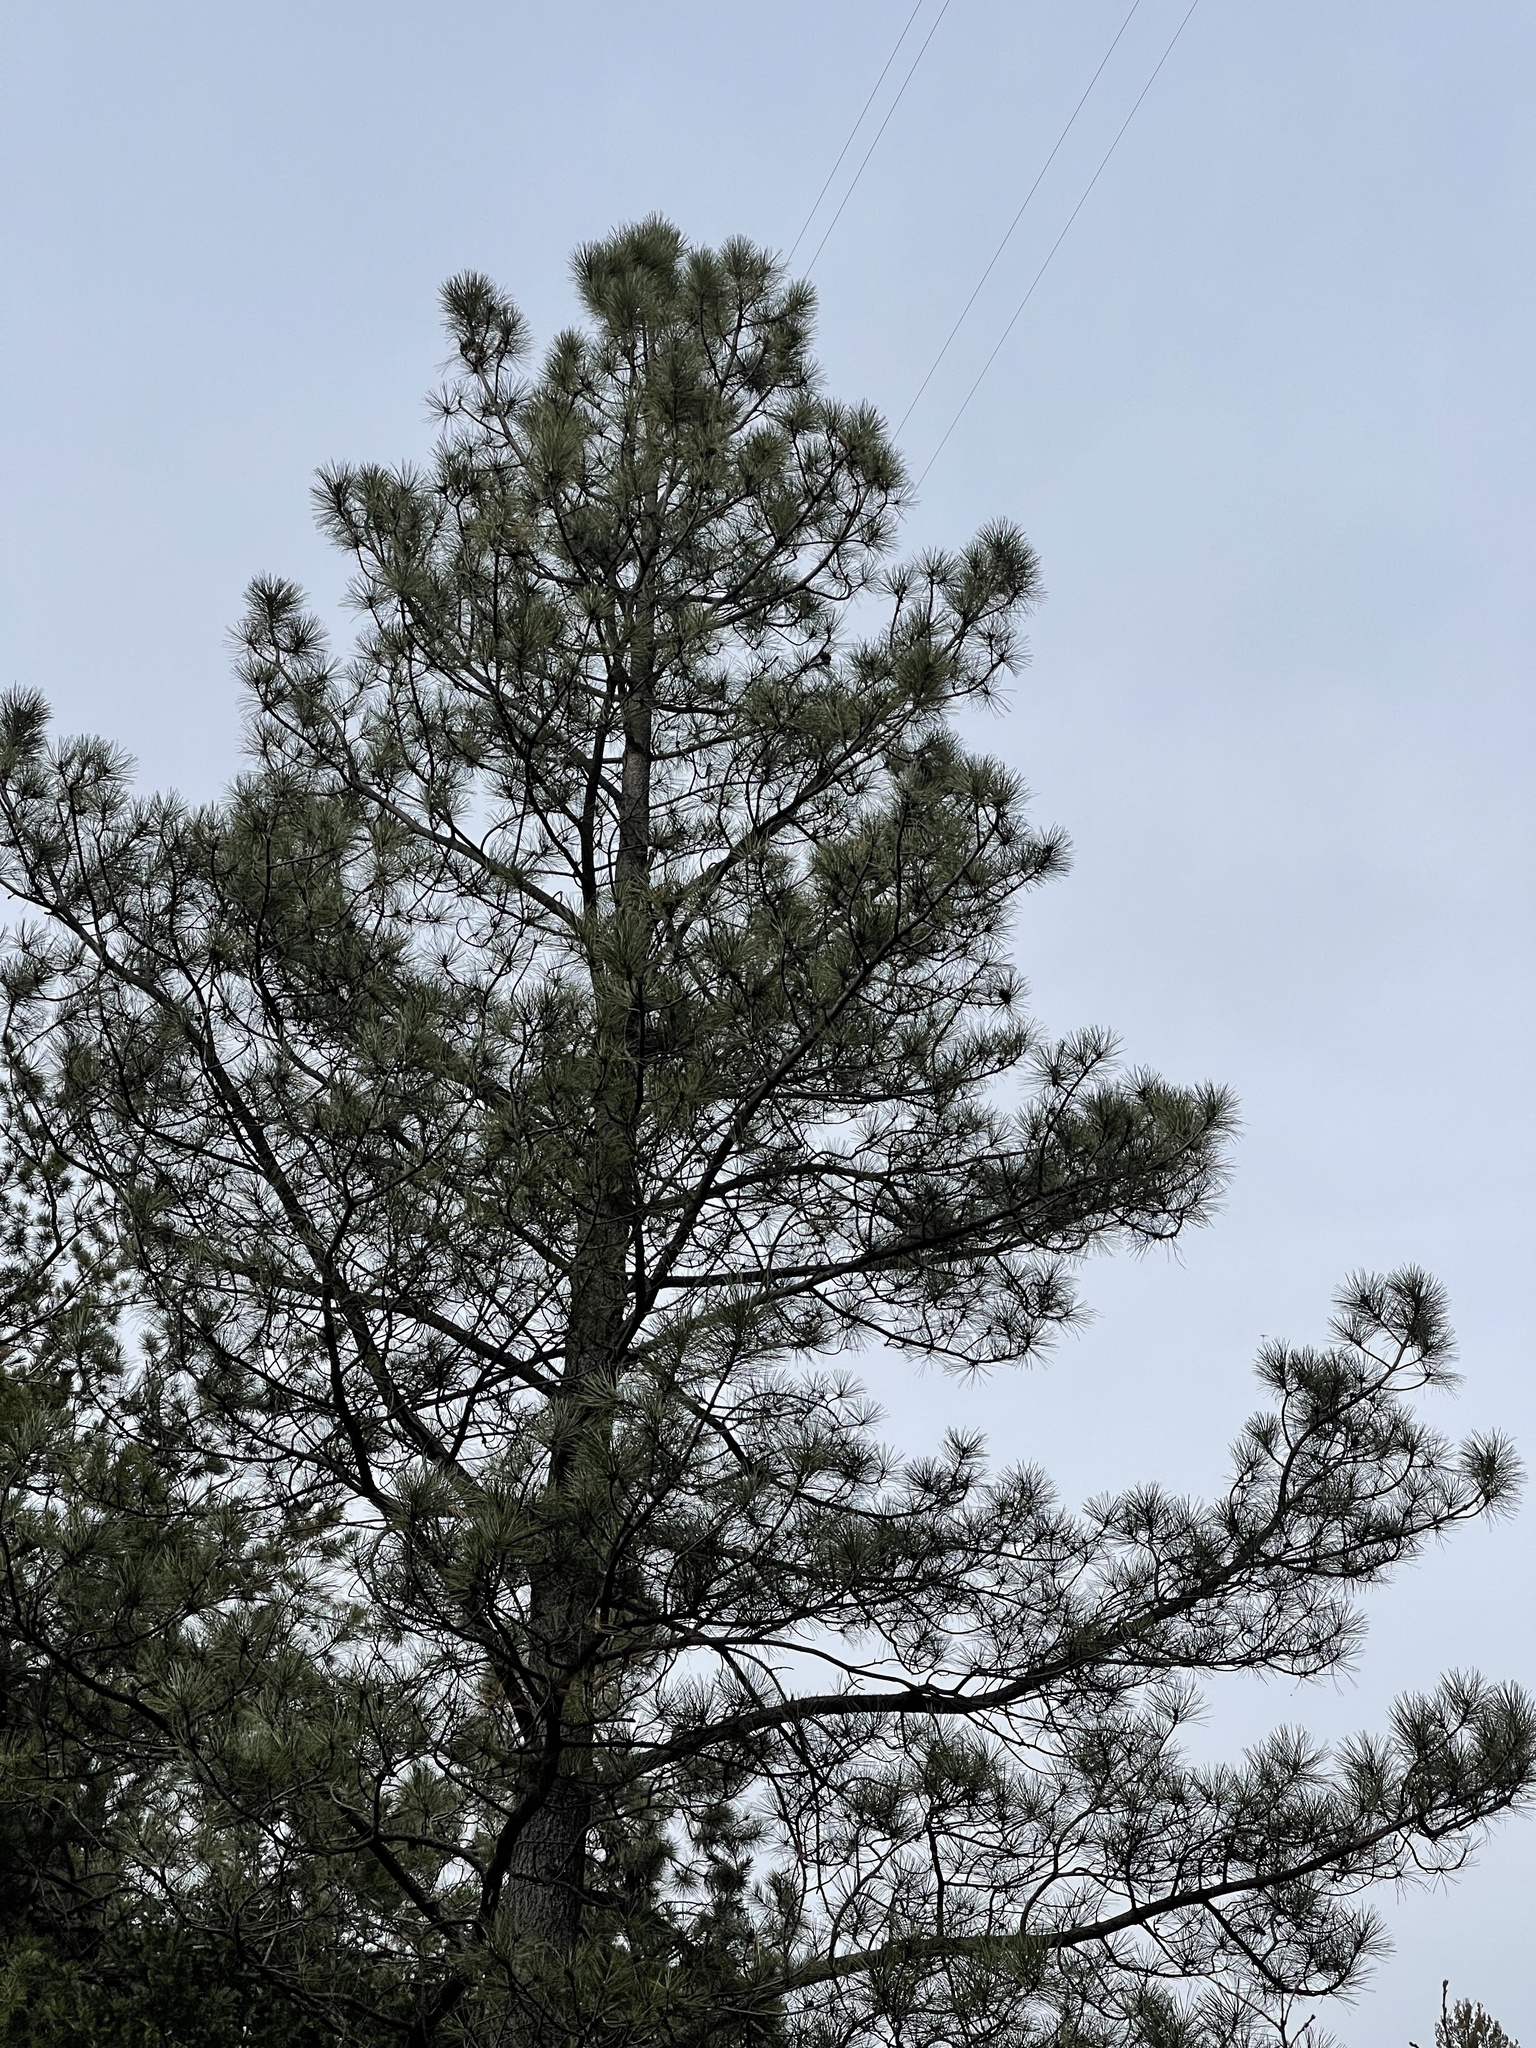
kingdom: Plantae
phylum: Tracheophyta
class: Pinopsida
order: Pinales
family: Pinaceae
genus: Pinus
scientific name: Pinus ponderosa
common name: Western yellow-pine
